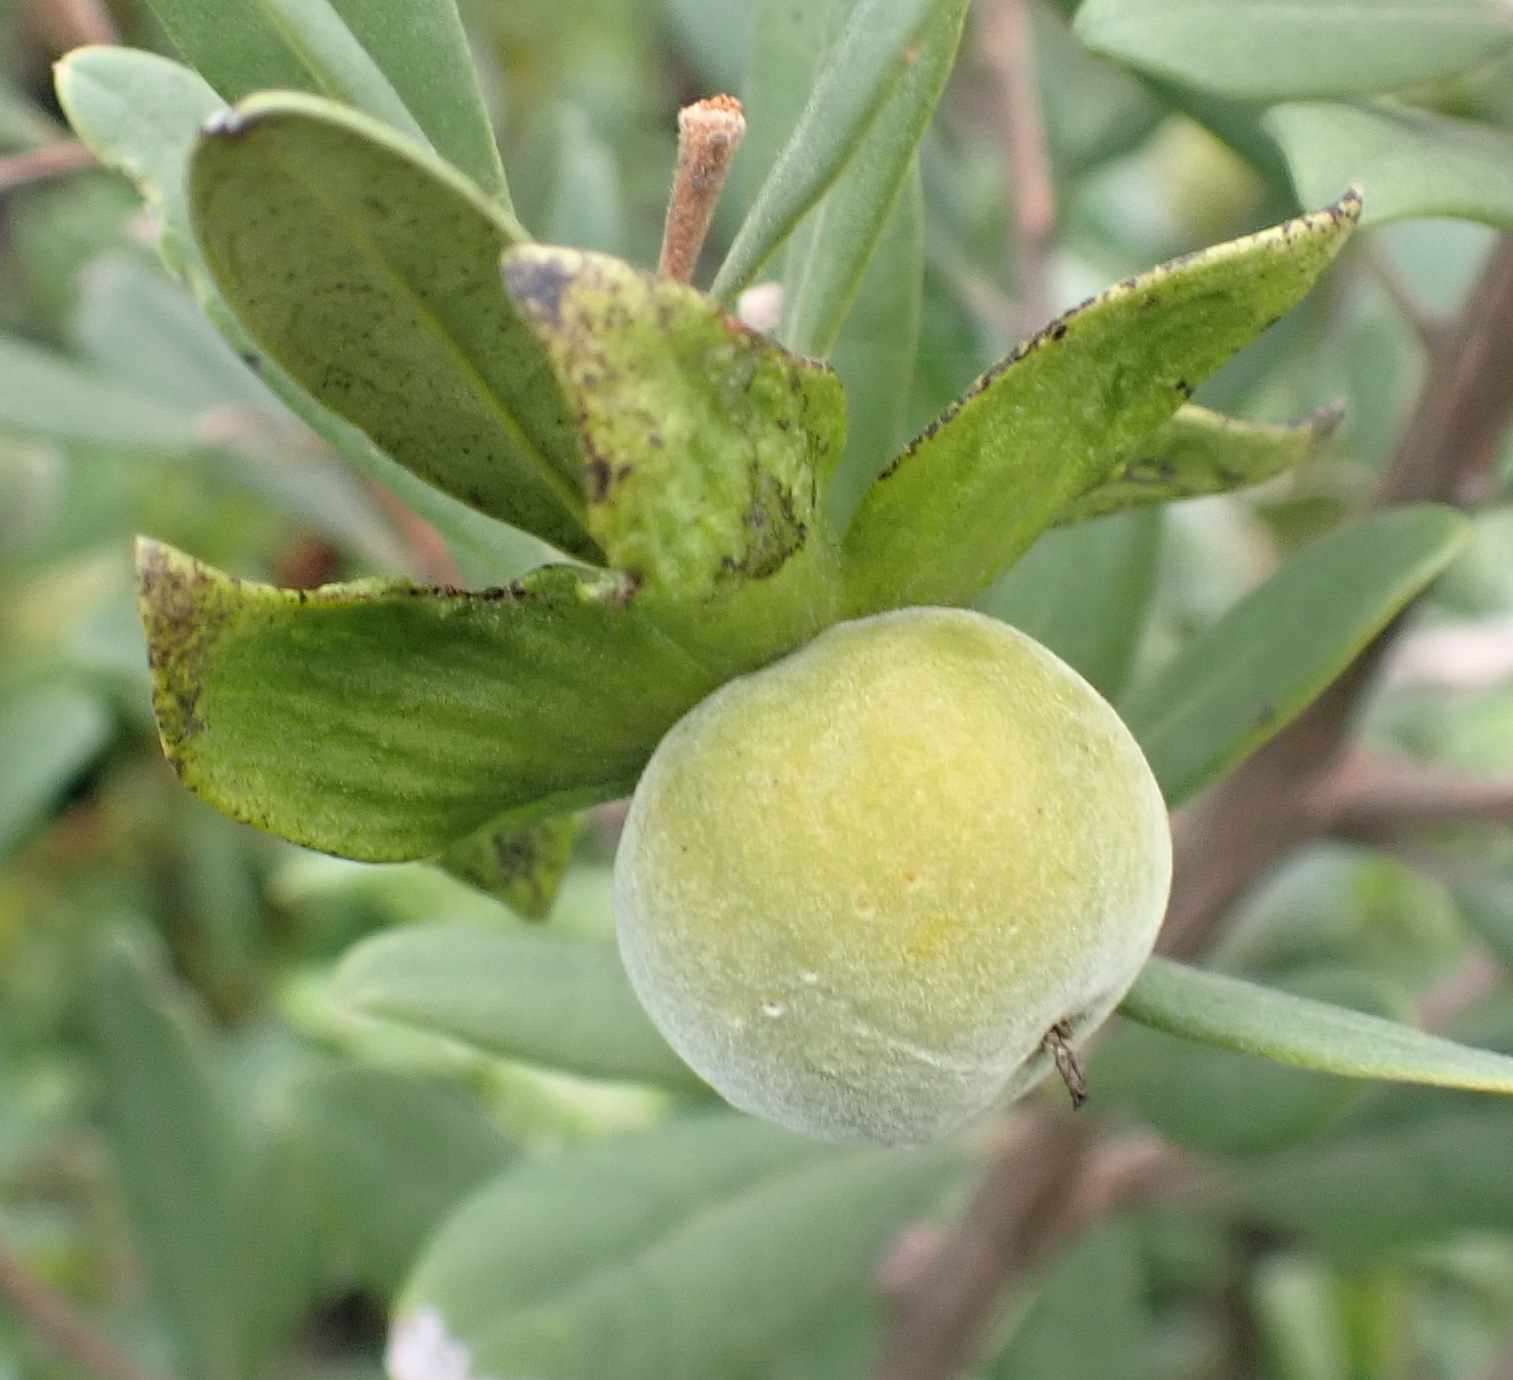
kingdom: Plantae
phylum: Tracheophyta
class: Magnoliopsida
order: Ericales
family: Ebenaceae
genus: Diospyros
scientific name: Diospyros dichrophylla
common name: Common star-apple
